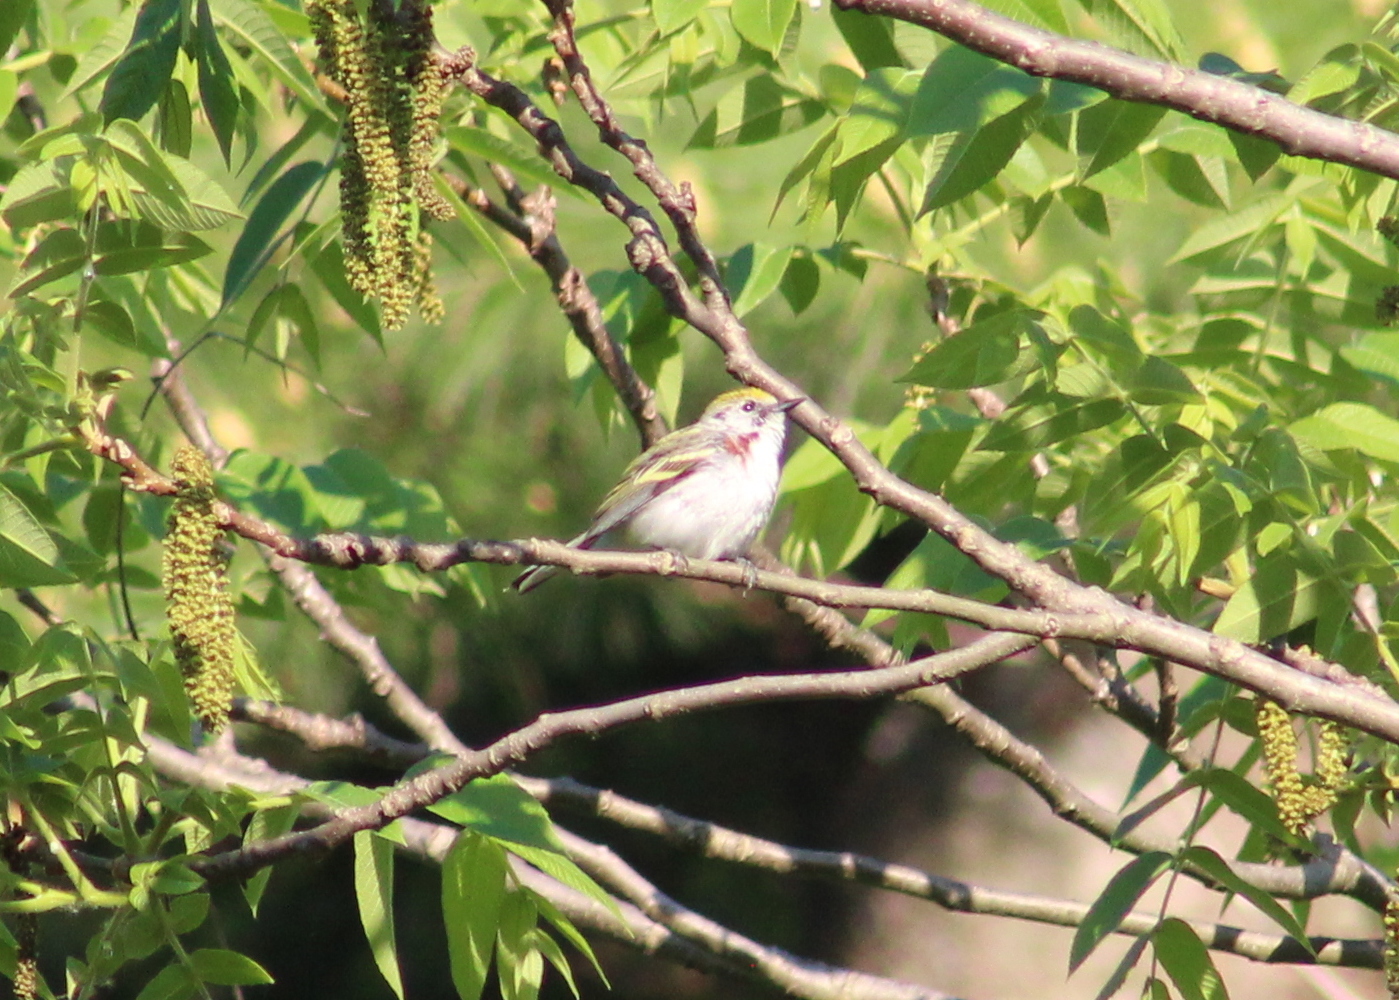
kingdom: Animalia
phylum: Chordata
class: Aves
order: Passeriformes
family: Parulidae
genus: Setophaga
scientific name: Setophaga pensylvanica
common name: Chestnut-sided warbler
